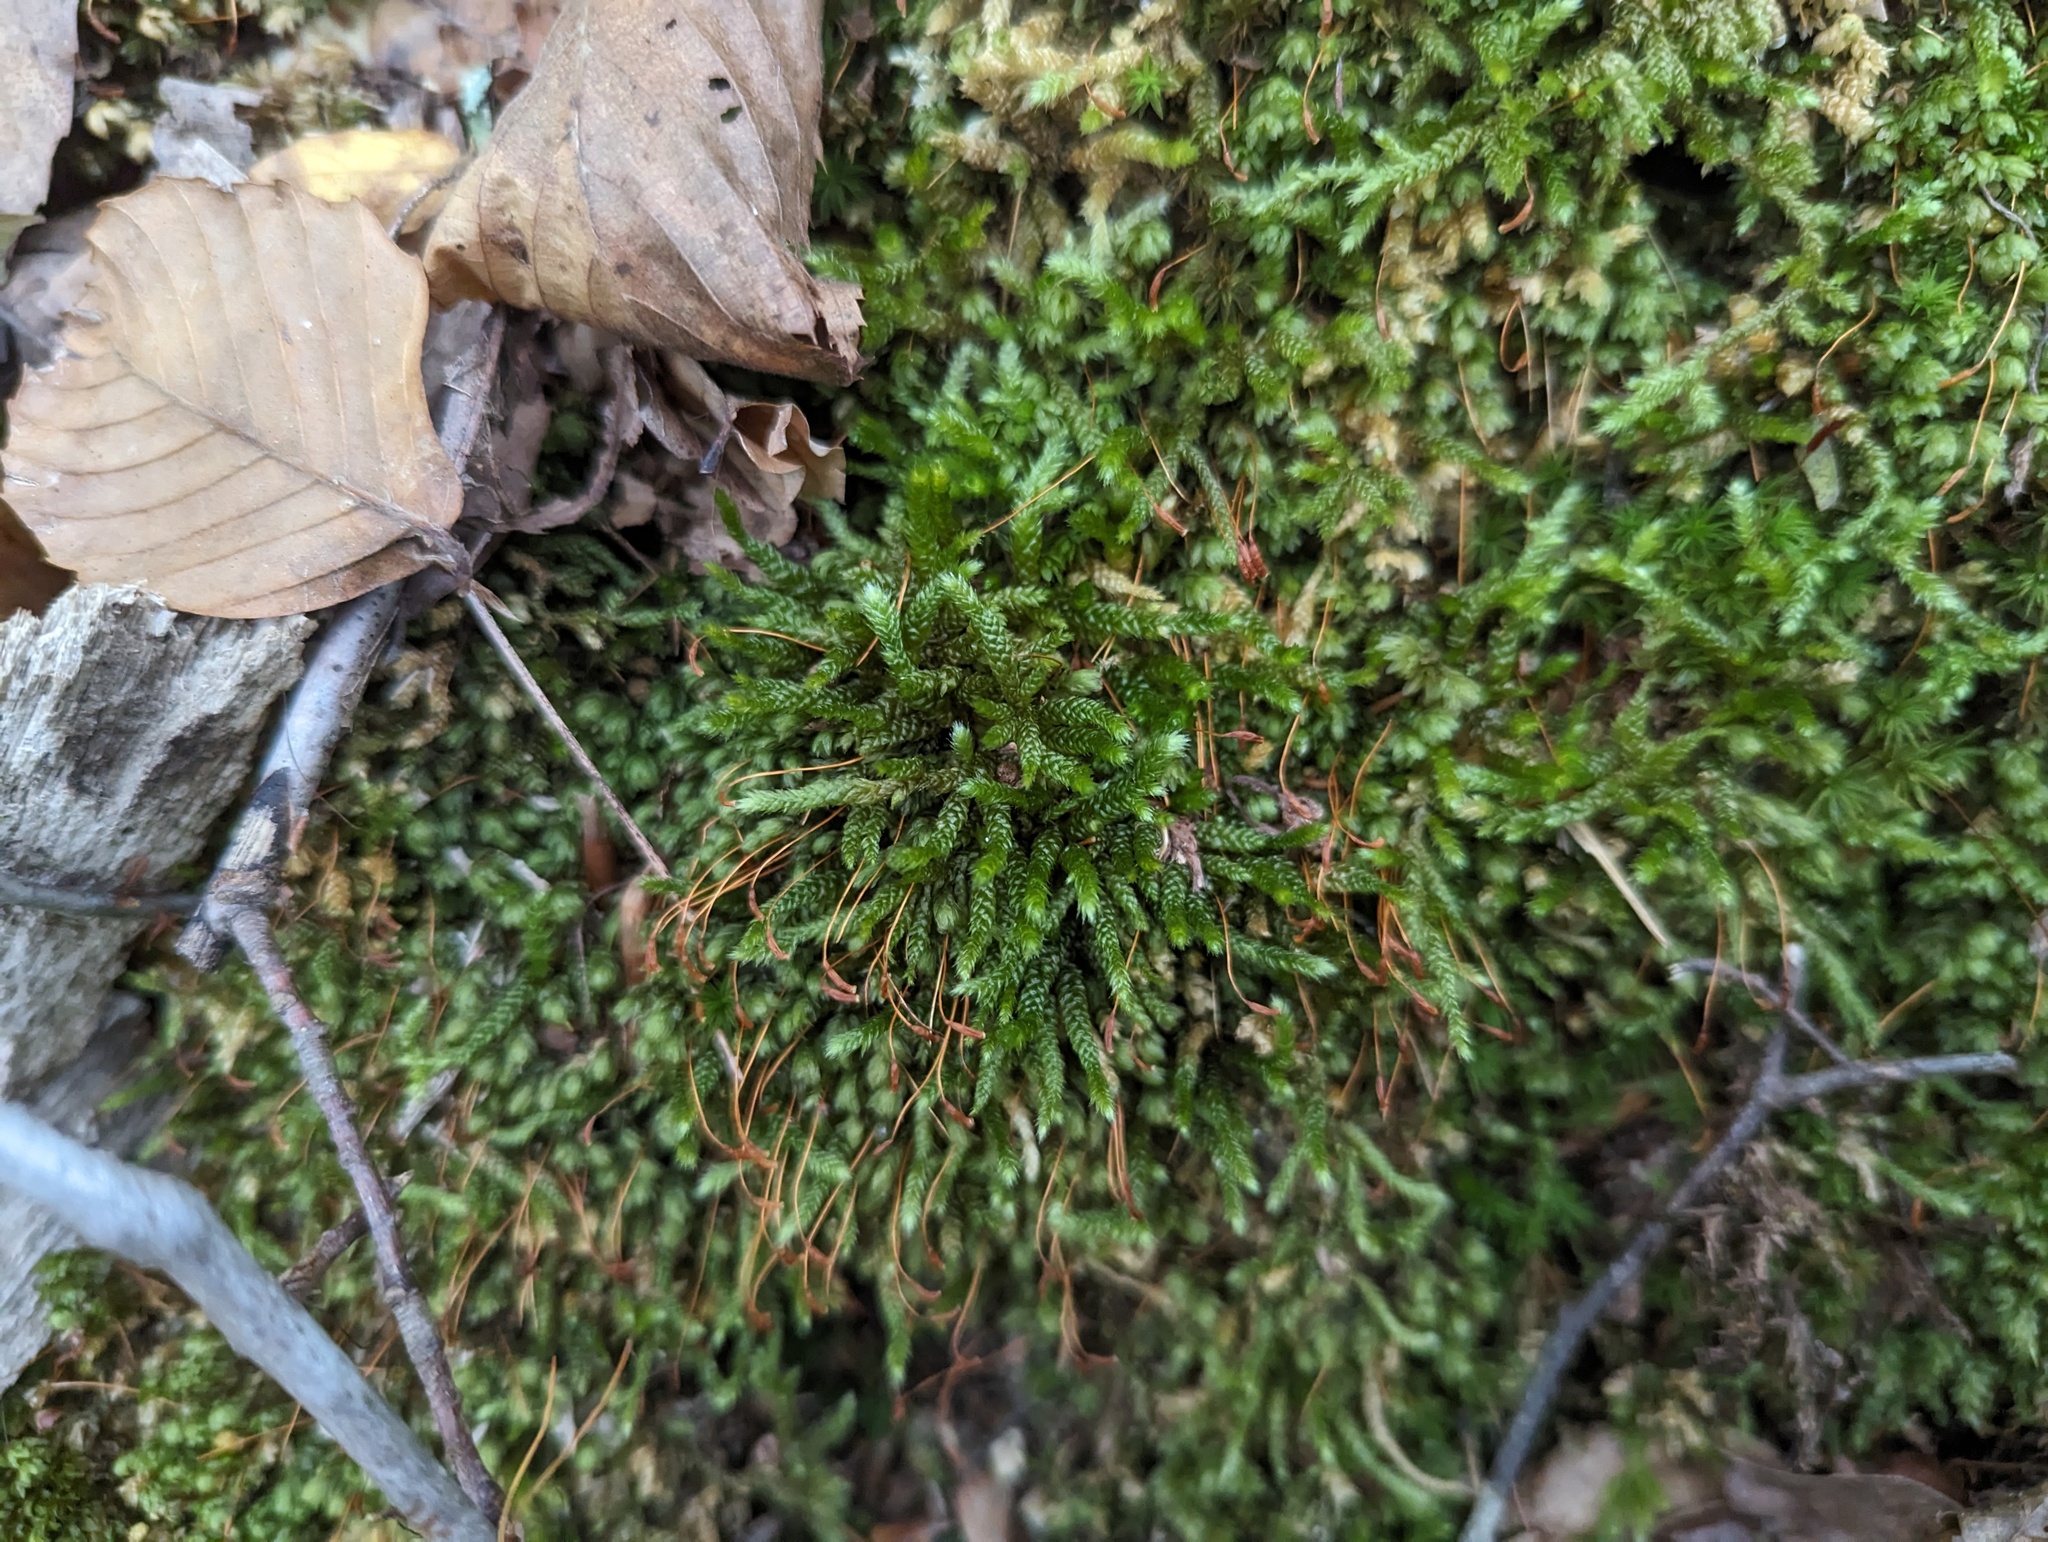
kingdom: Plantae
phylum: Bryophyta
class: Bryopsida
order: Hypnales
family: Brachytheciaceae
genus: Bryoandersonia
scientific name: Bryoandersonia illecebra
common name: Spoon-leaved moss
